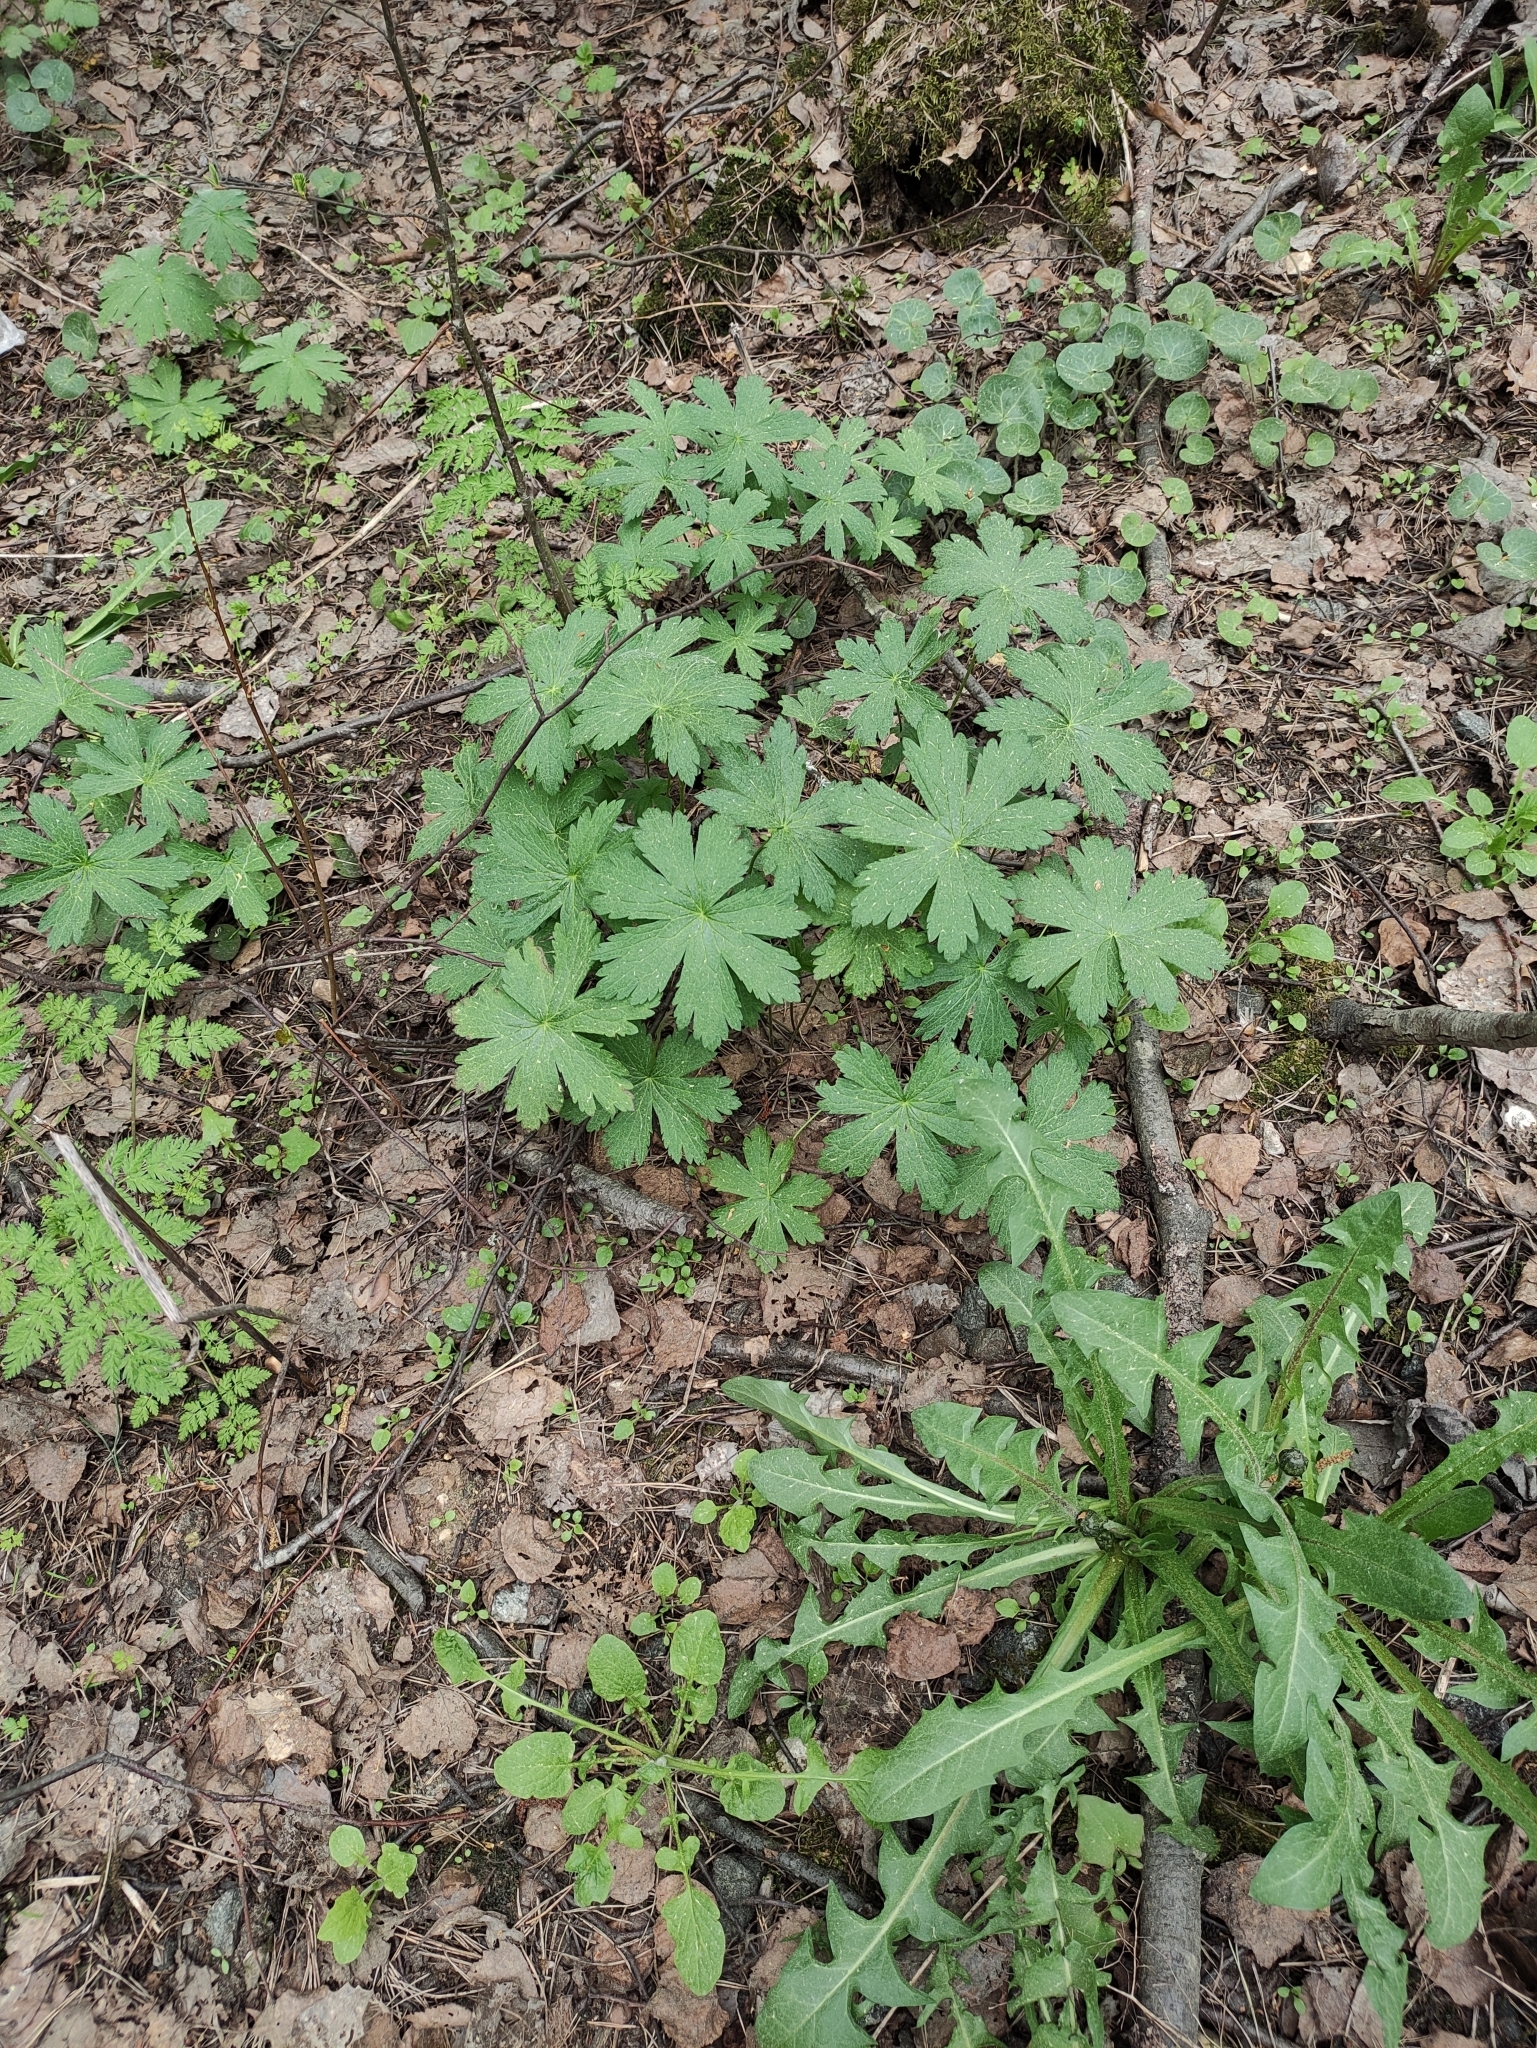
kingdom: Plantae
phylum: Tracheophyta
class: Magnoliopsida
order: Geraniales
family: Geraniaceae
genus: Geranium
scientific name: Geranium sylvaticum
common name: Wood crane's-bill
